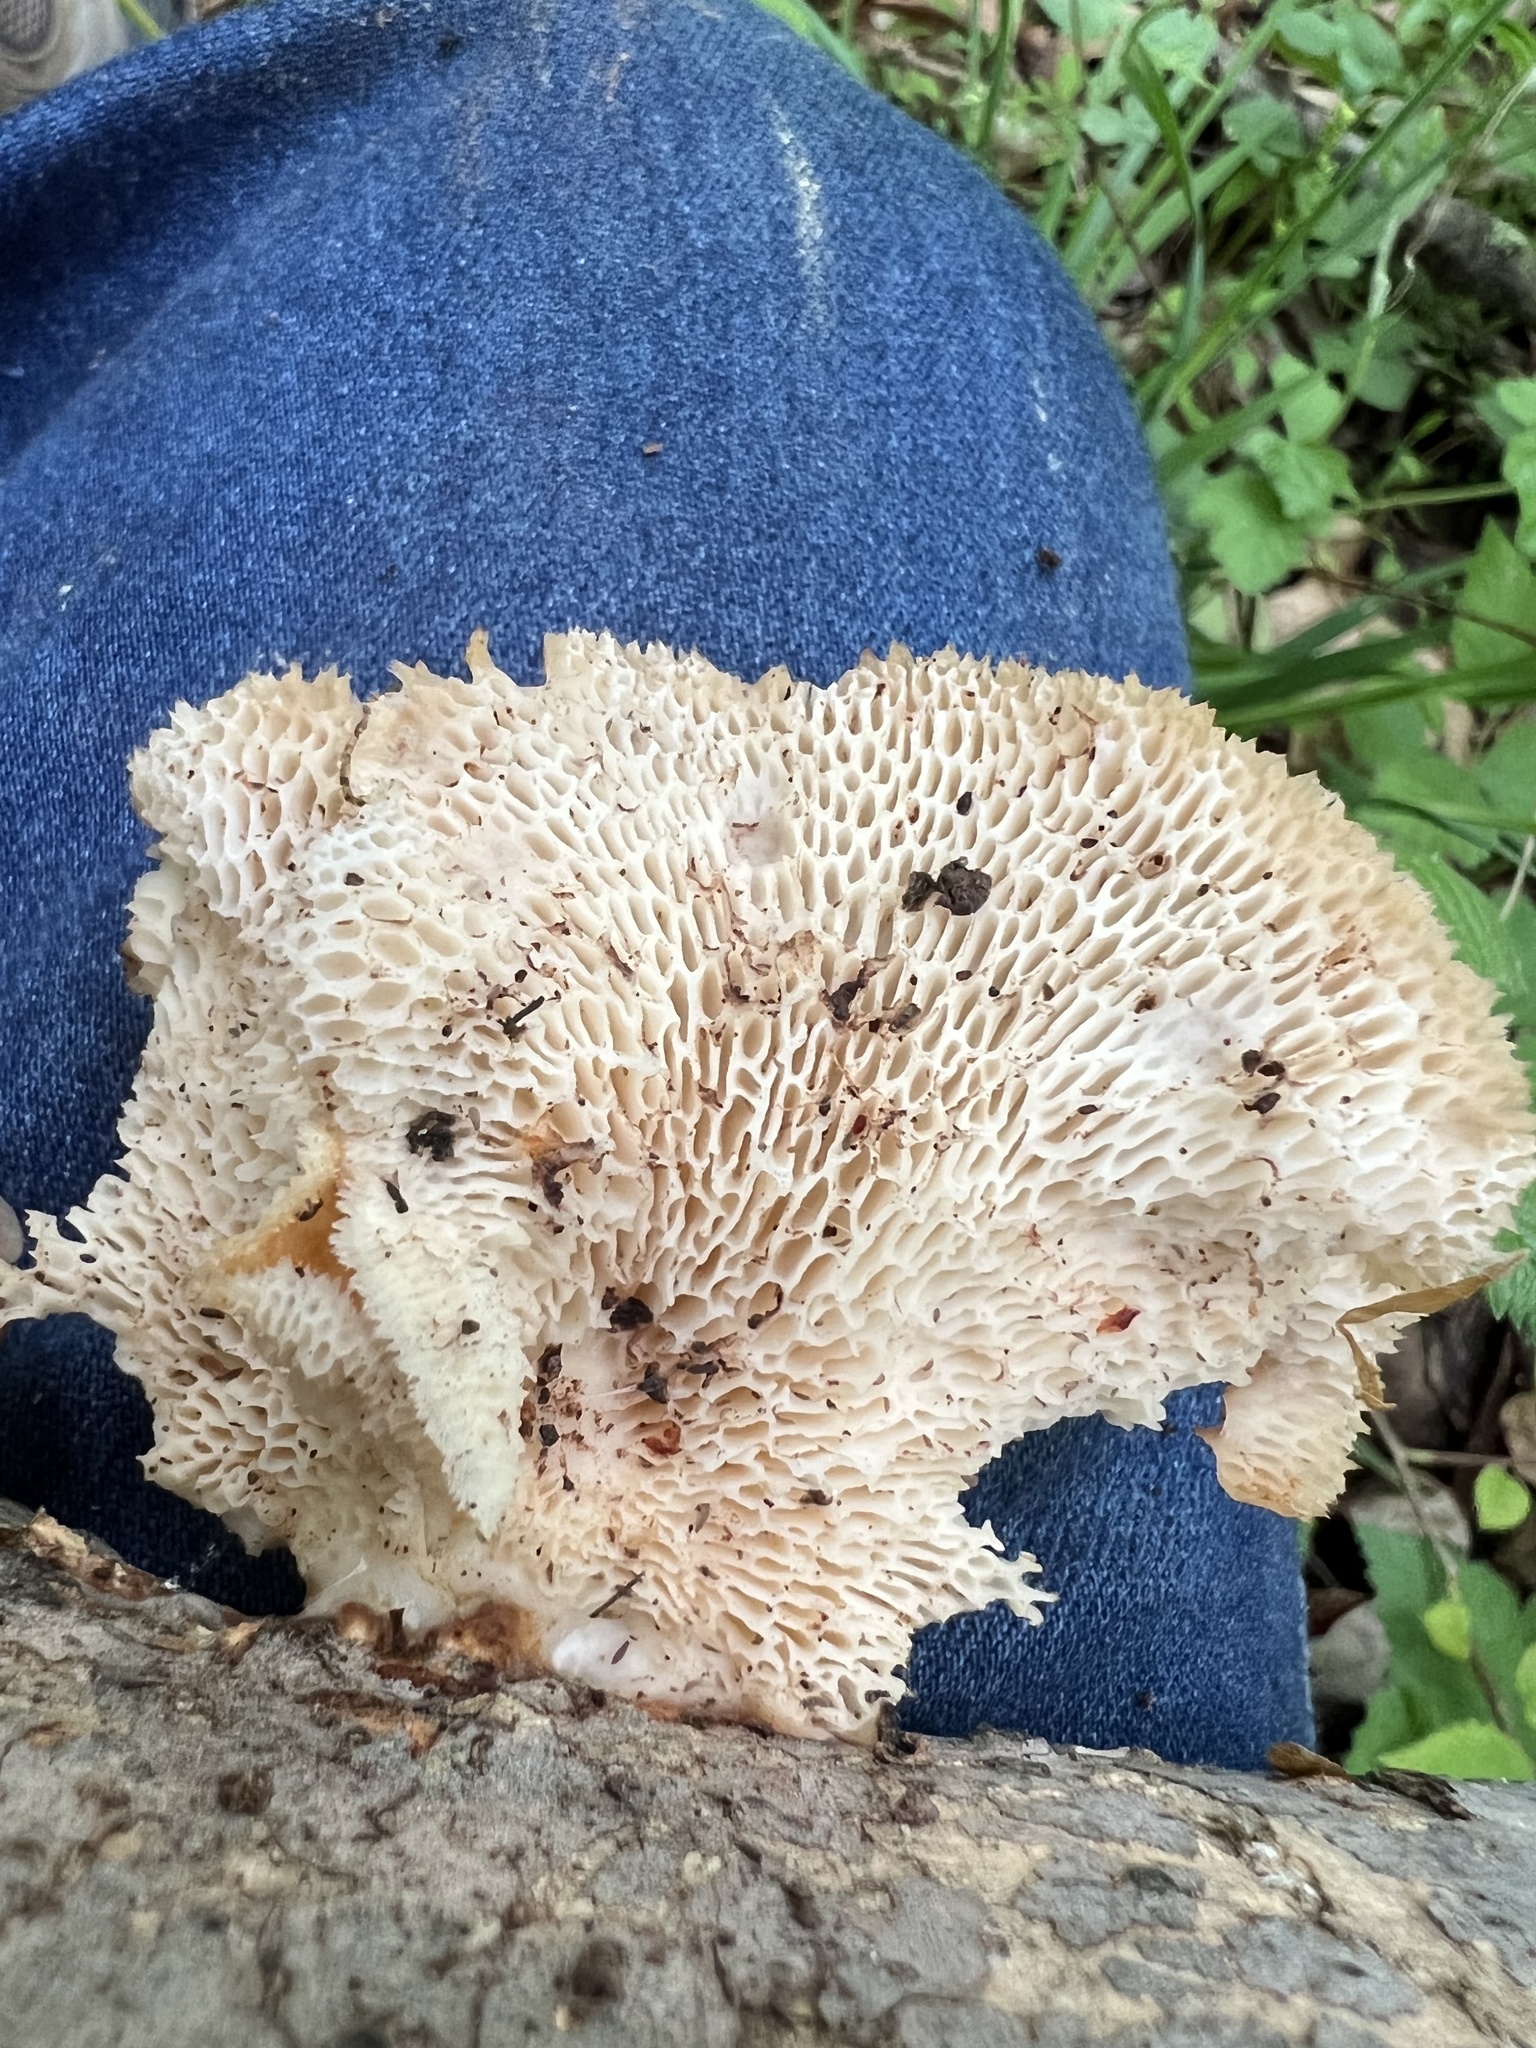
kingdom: Fungi
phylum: Basidiomycota
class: Agaricomycetes
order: Polyporales
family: Polyporaceae
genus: Neofavolus
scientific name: Neofavolus alveolaris
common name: Hexagonal-pored polypore
